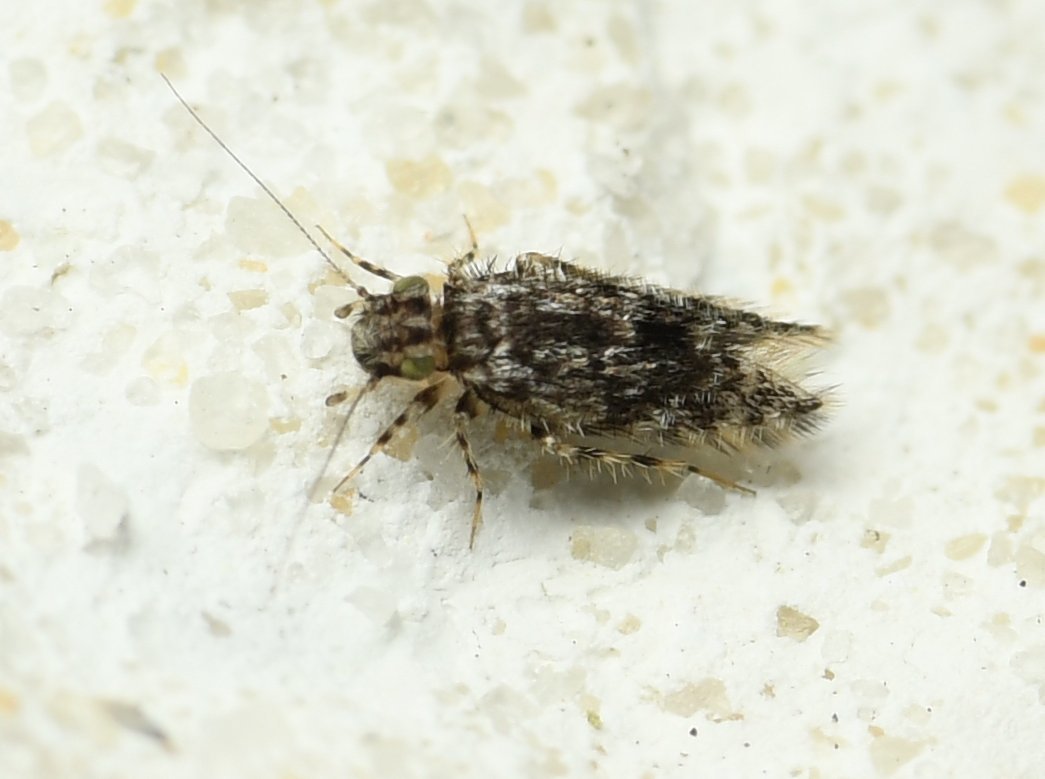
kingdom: Animalia
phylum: Arthropoda
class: Insecta
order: Psocodea
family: Lepidopsocidae
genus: Echmepteryx
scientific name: Echmepteryx intermedia
